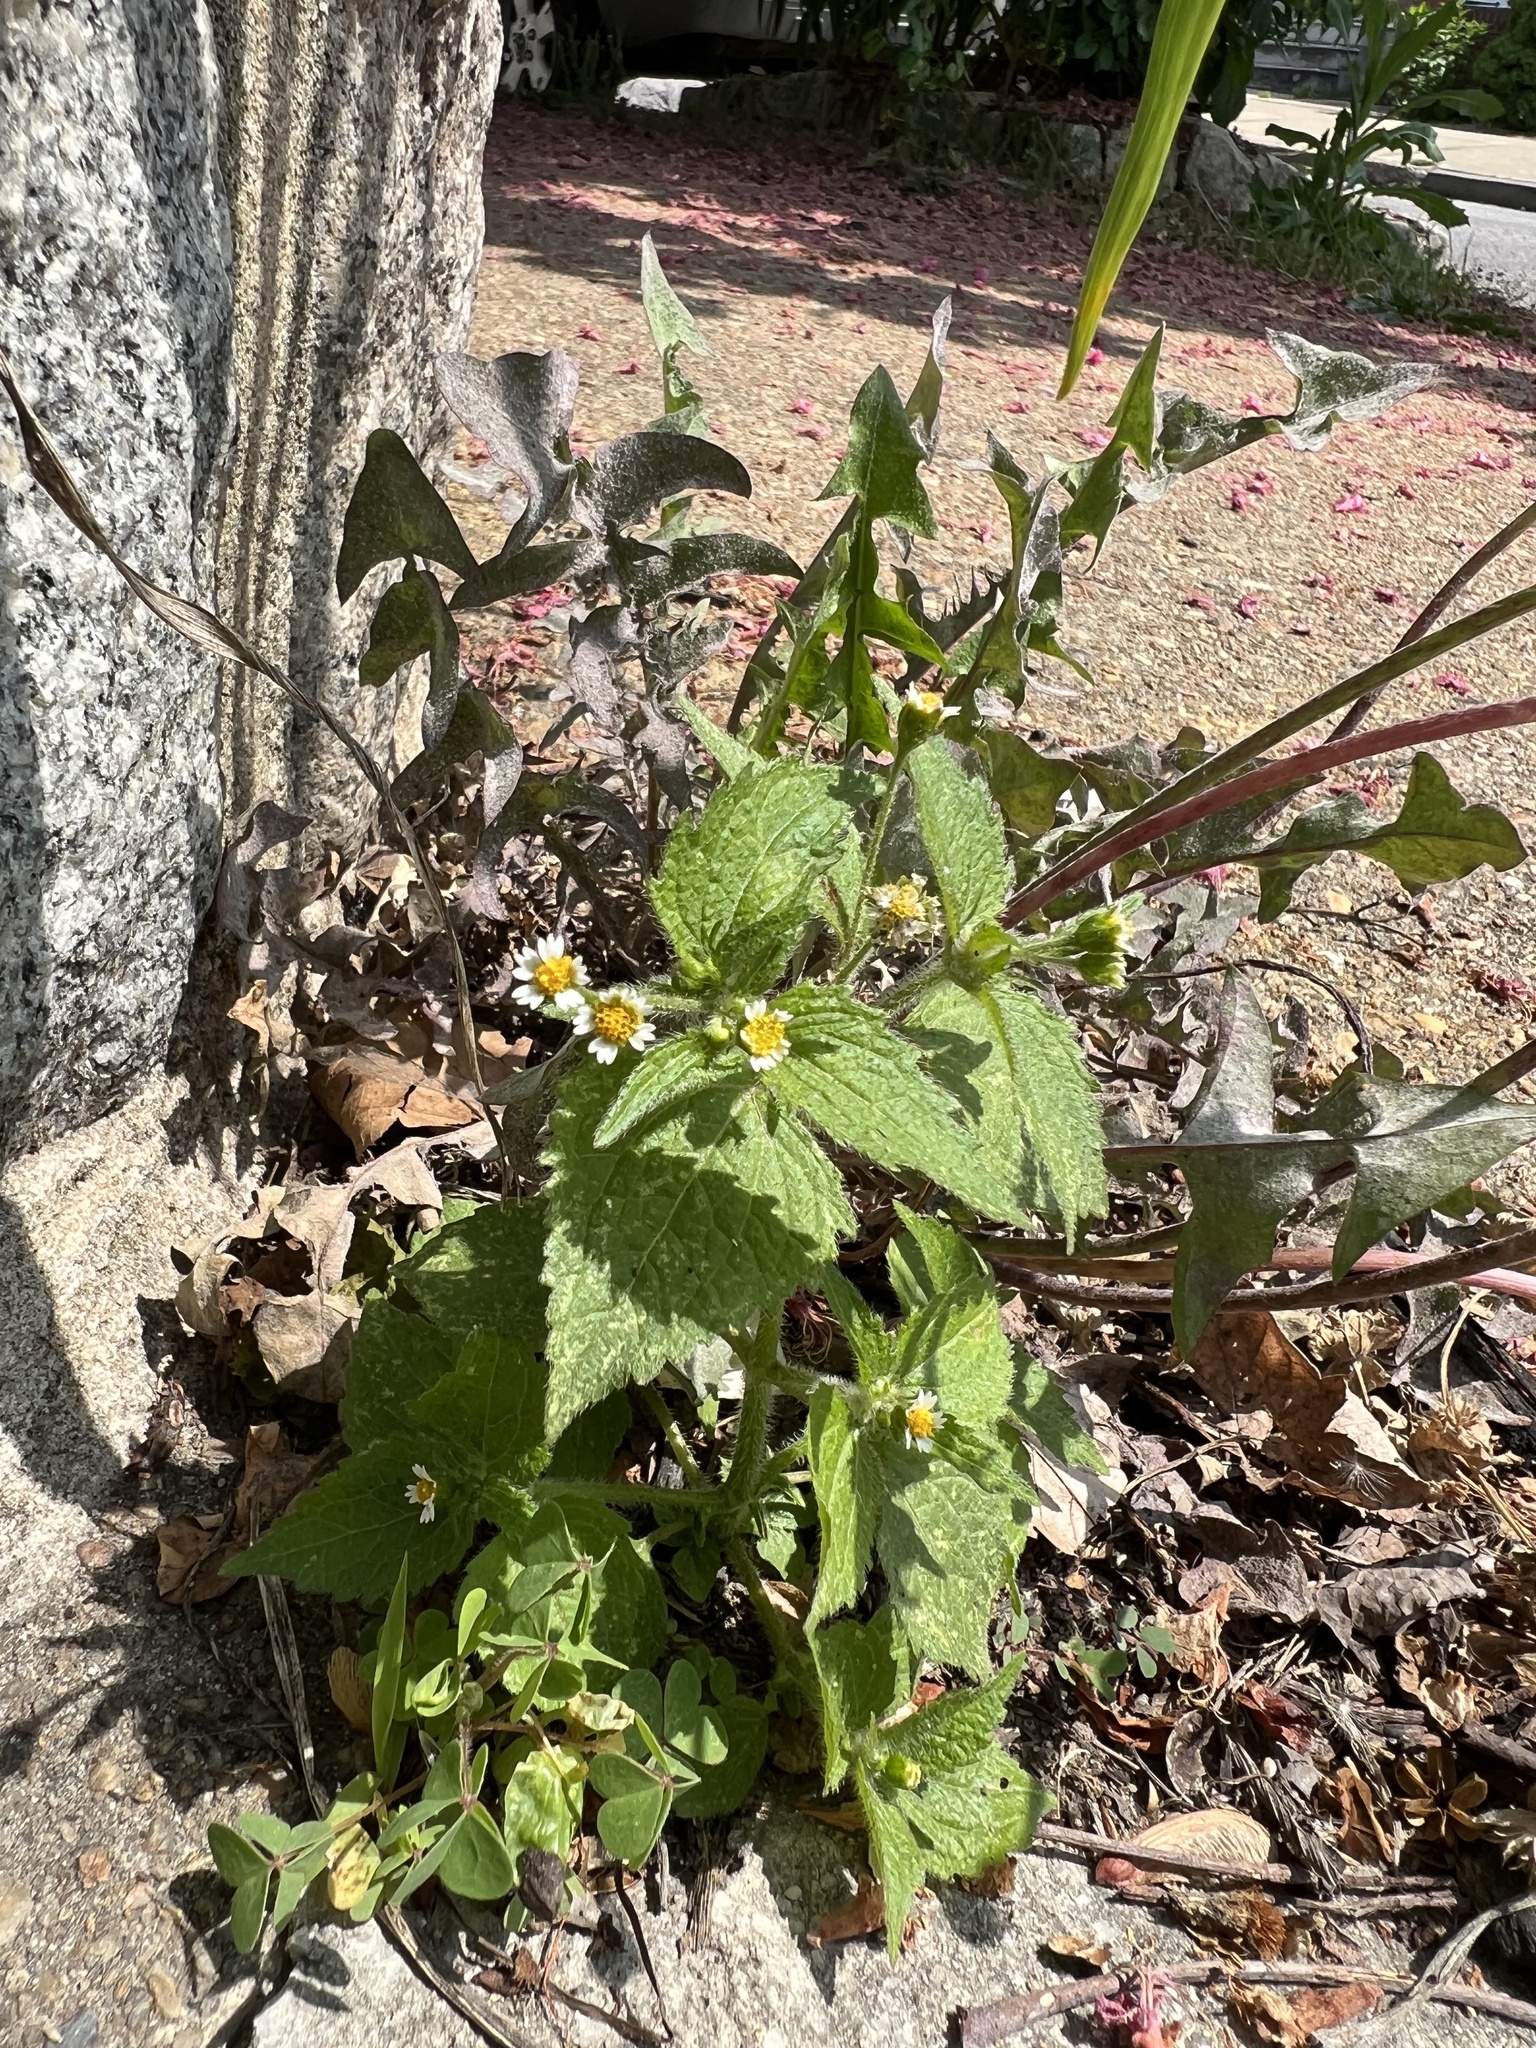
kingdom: Plantae
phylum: Tracheophyta
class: Magnoliopsida
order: Asterales
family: Asteraceae
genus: Galinsoga
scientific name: Galinsoga quadriradiata
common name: Shaggy soldier
